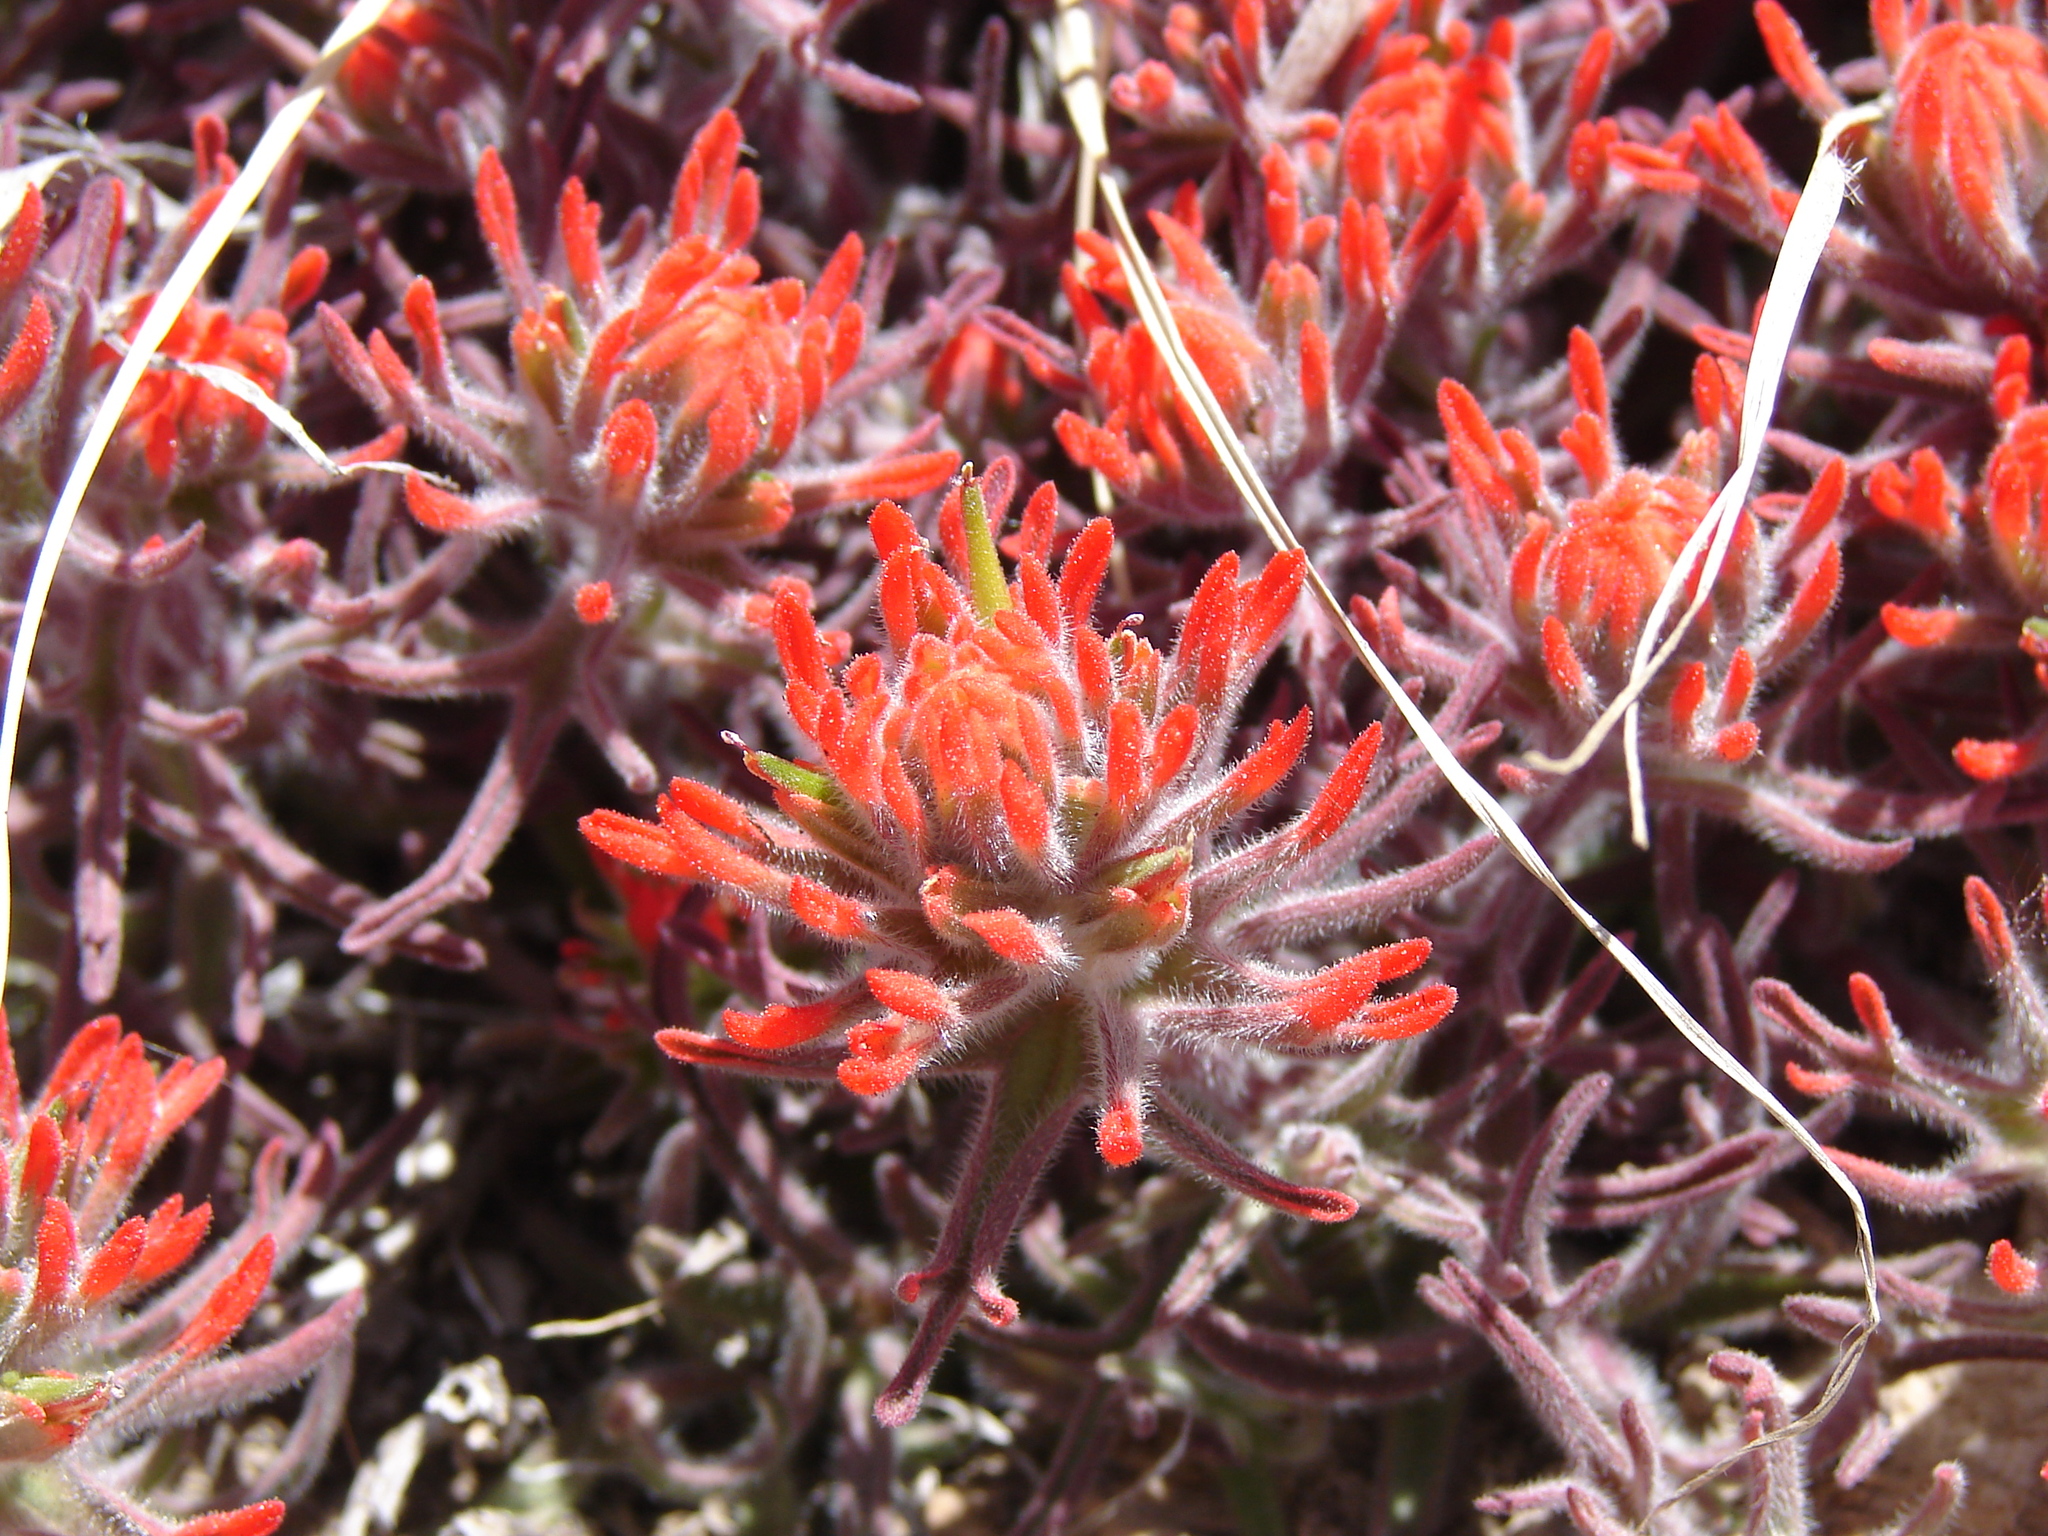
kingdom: Plantae
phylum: Tracheophyta
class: Magnoliopsida
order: Lamiales
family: Orobanchaceae
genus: Castilleja
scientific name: Castilleja chromosa
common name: Desert paintbrush
